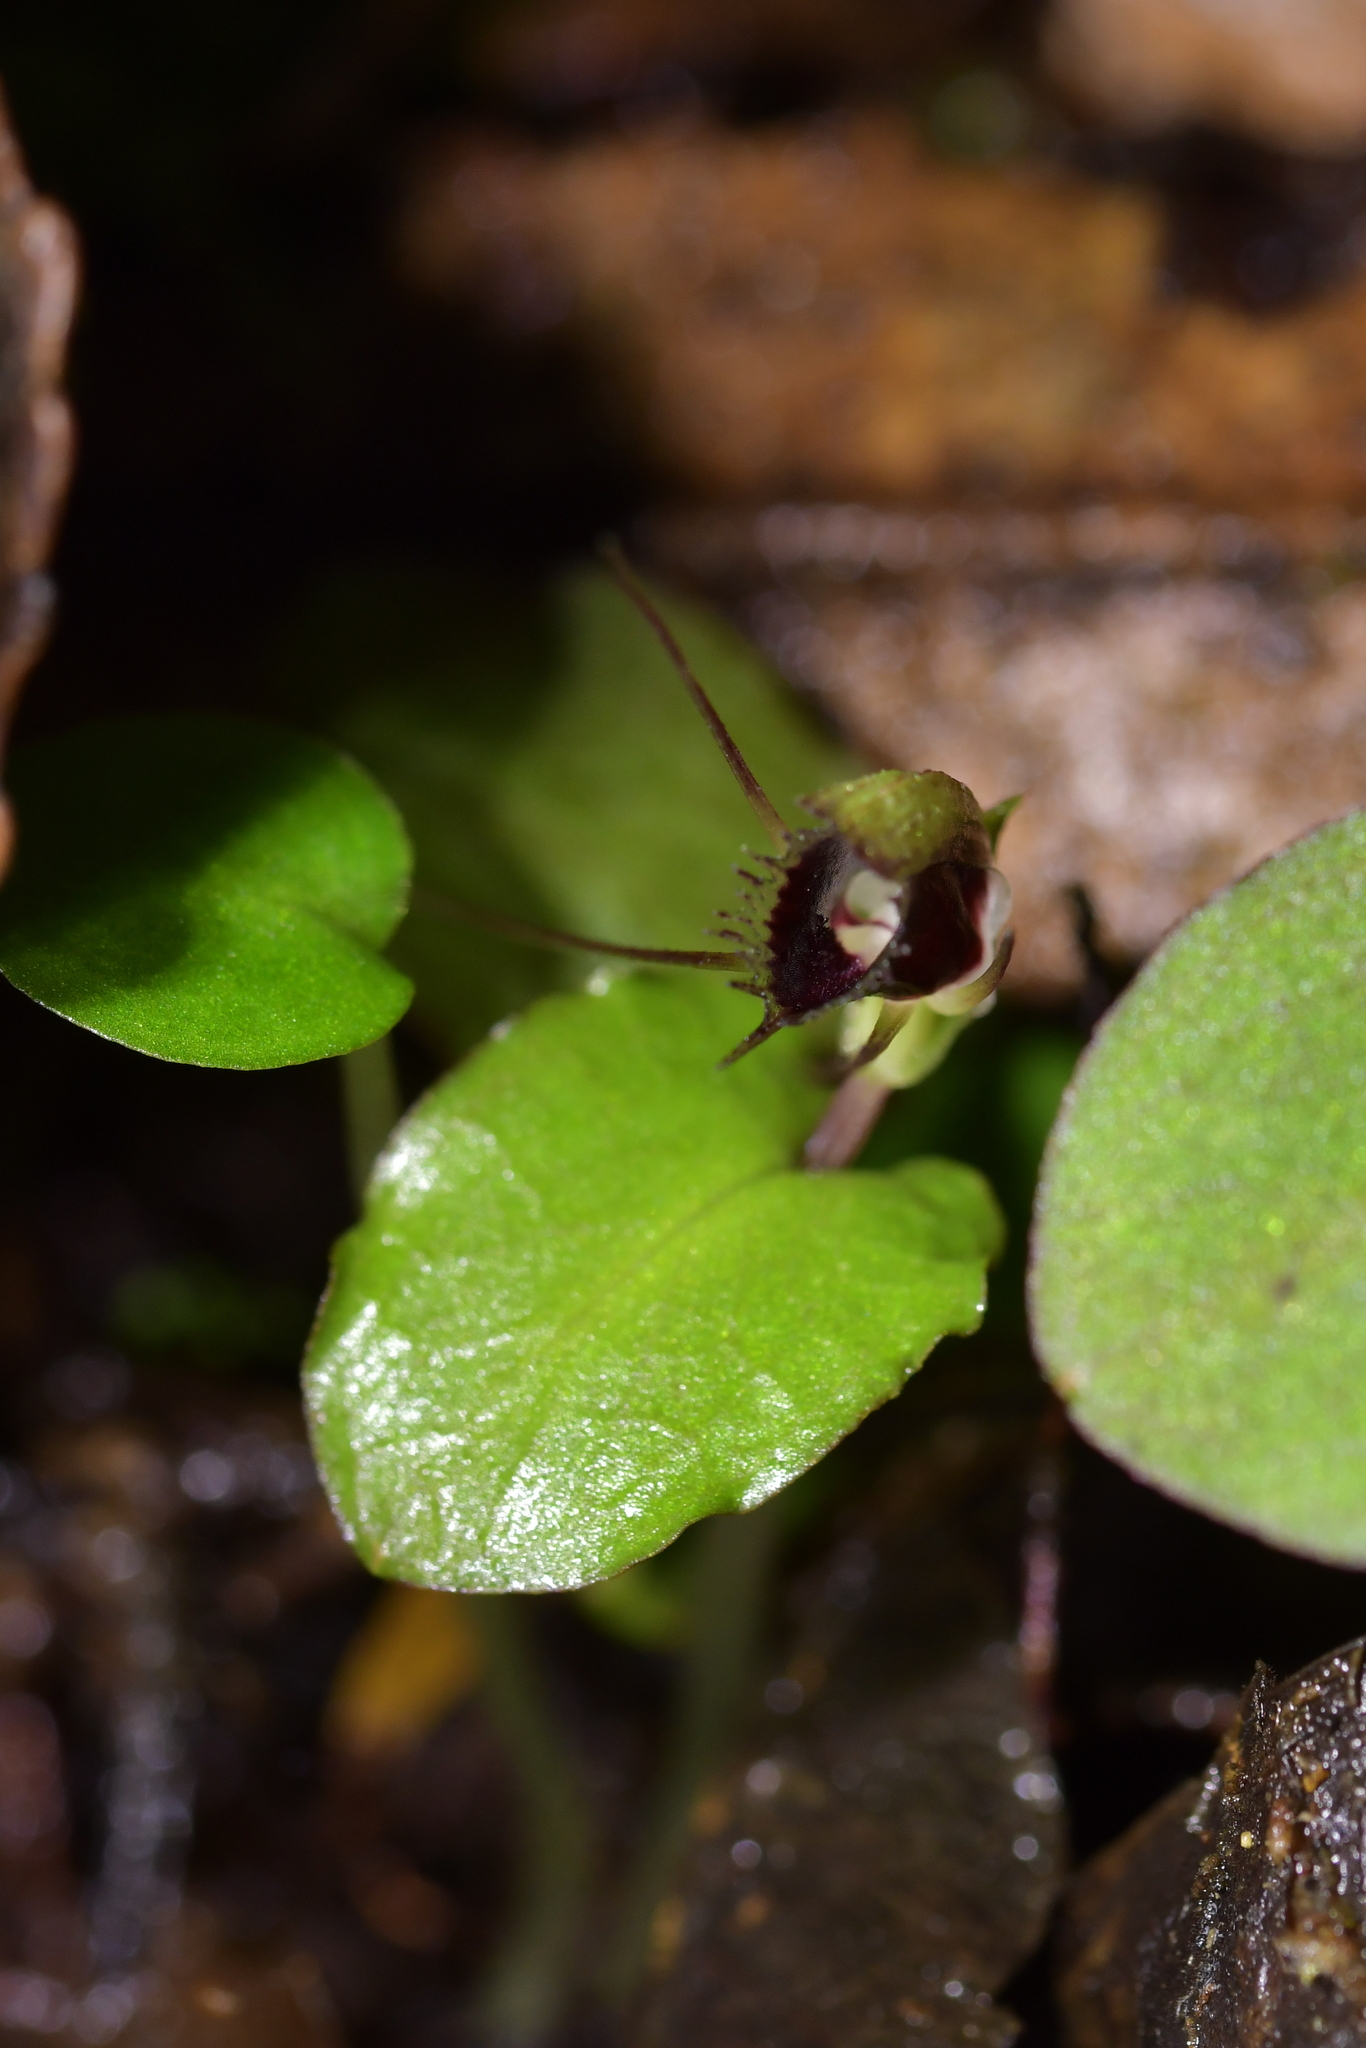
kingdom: Plantae
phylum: Tracheophyta
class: Liliopsida
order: Asparagales
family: Orchidaceae
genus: Corybas
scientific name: Corybas oblongus
